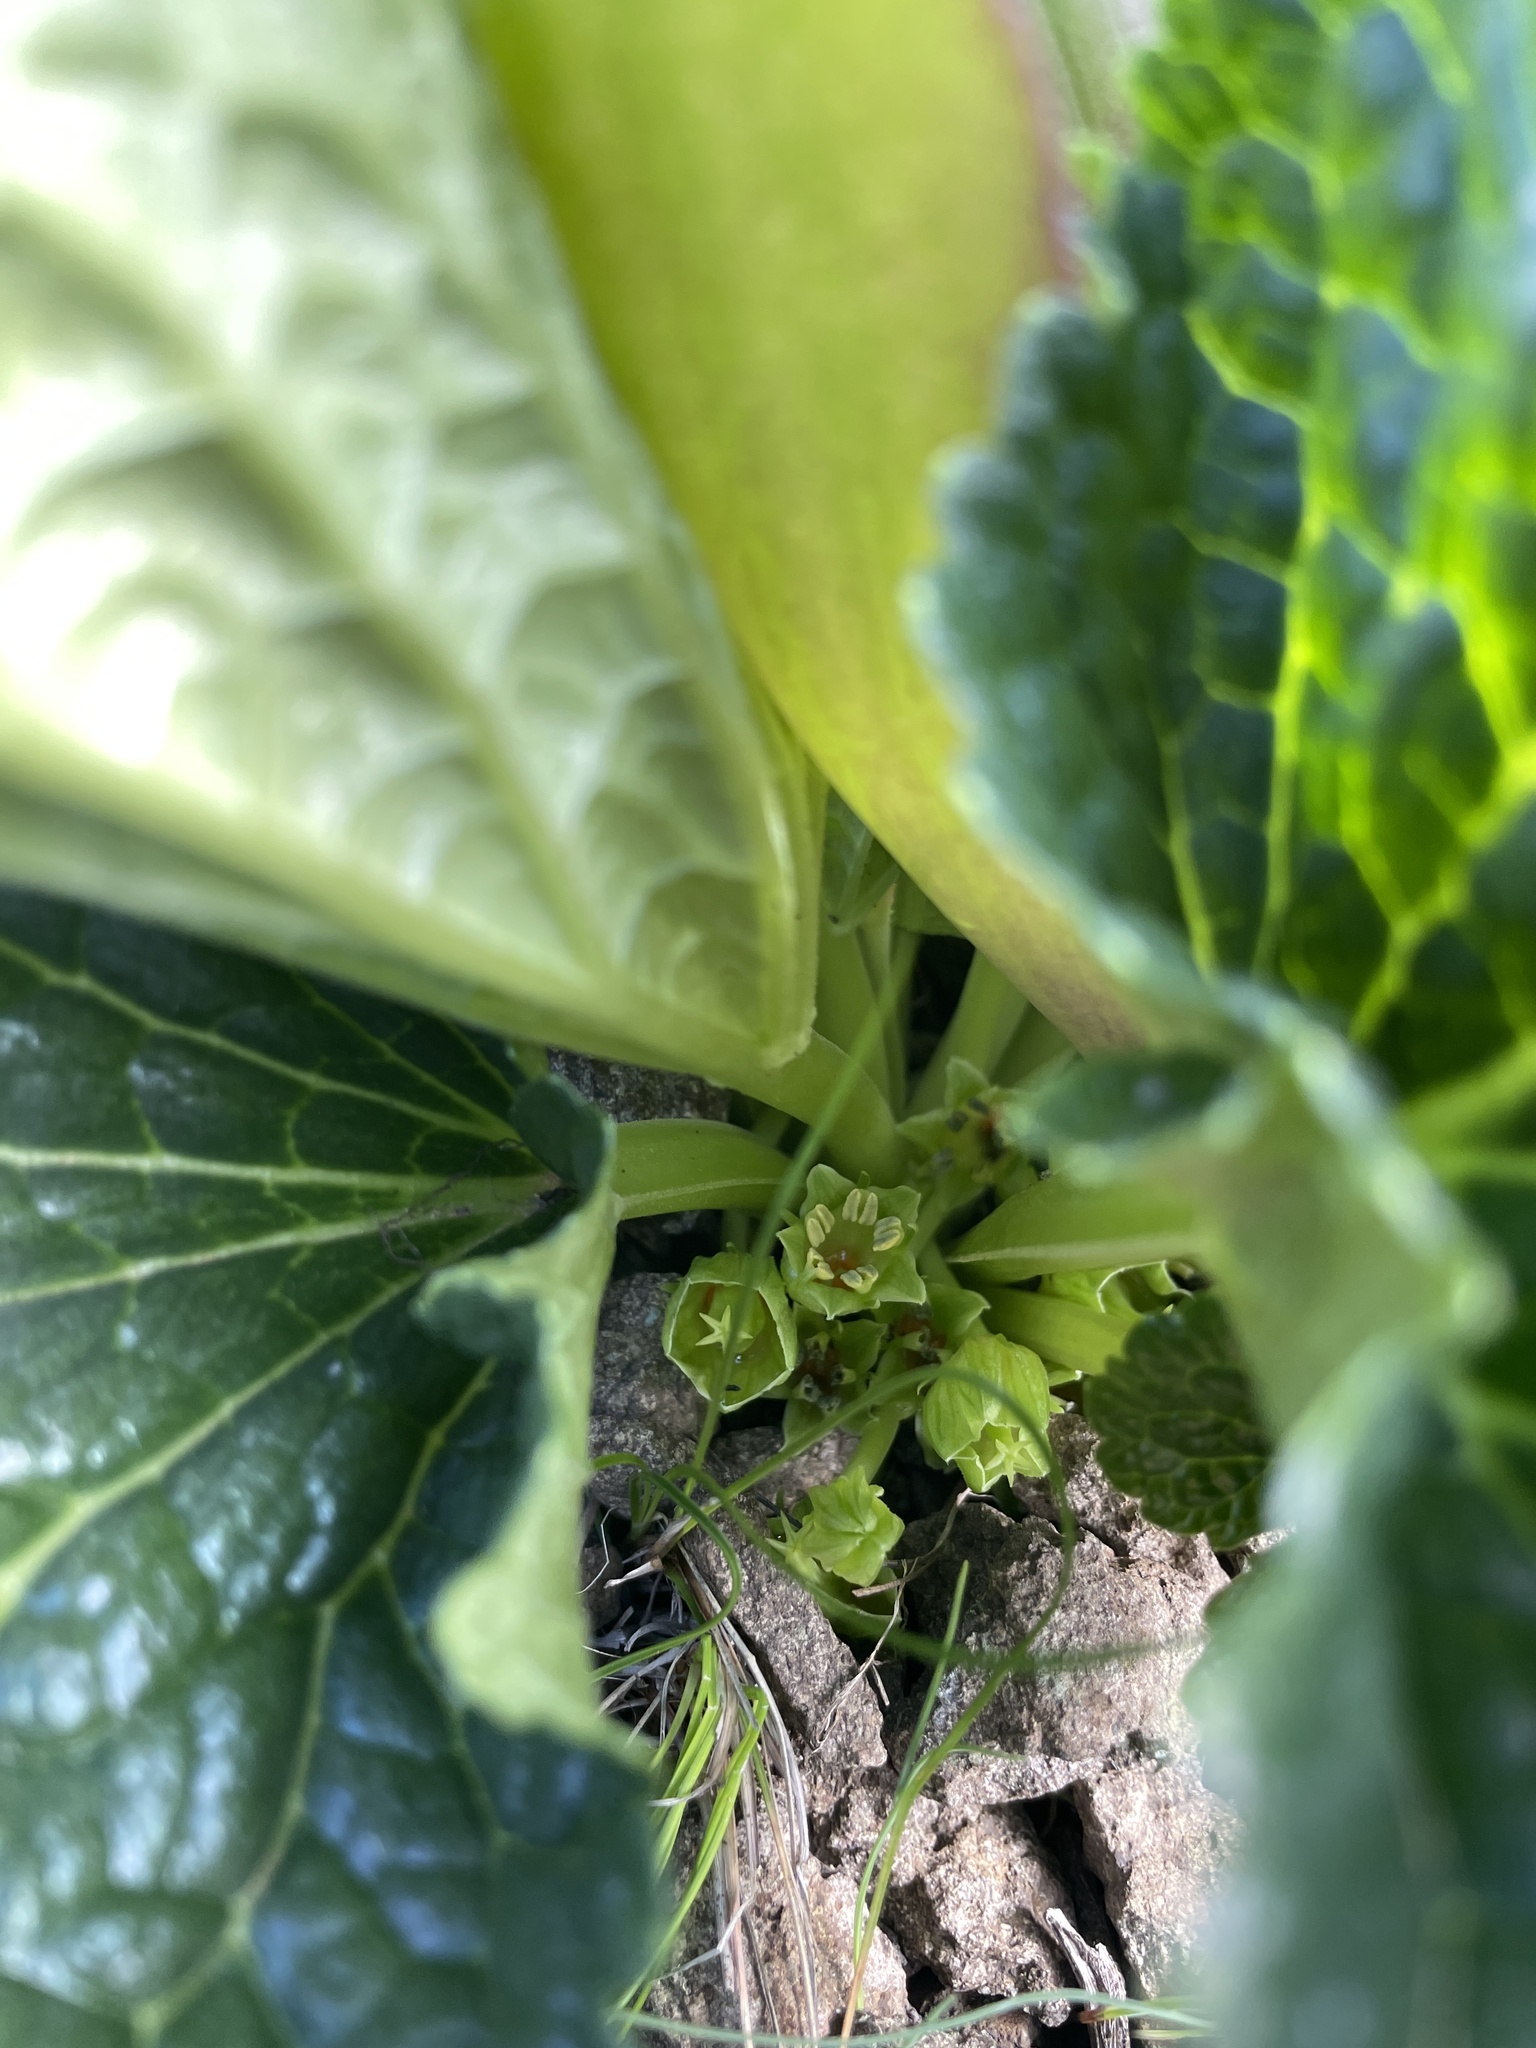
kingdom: Plantae
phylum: Tracheophyta
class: Magnoliopsida
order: Malpighiales
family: Achariaceae
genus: Guthriea
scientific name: Guthriea capensis
